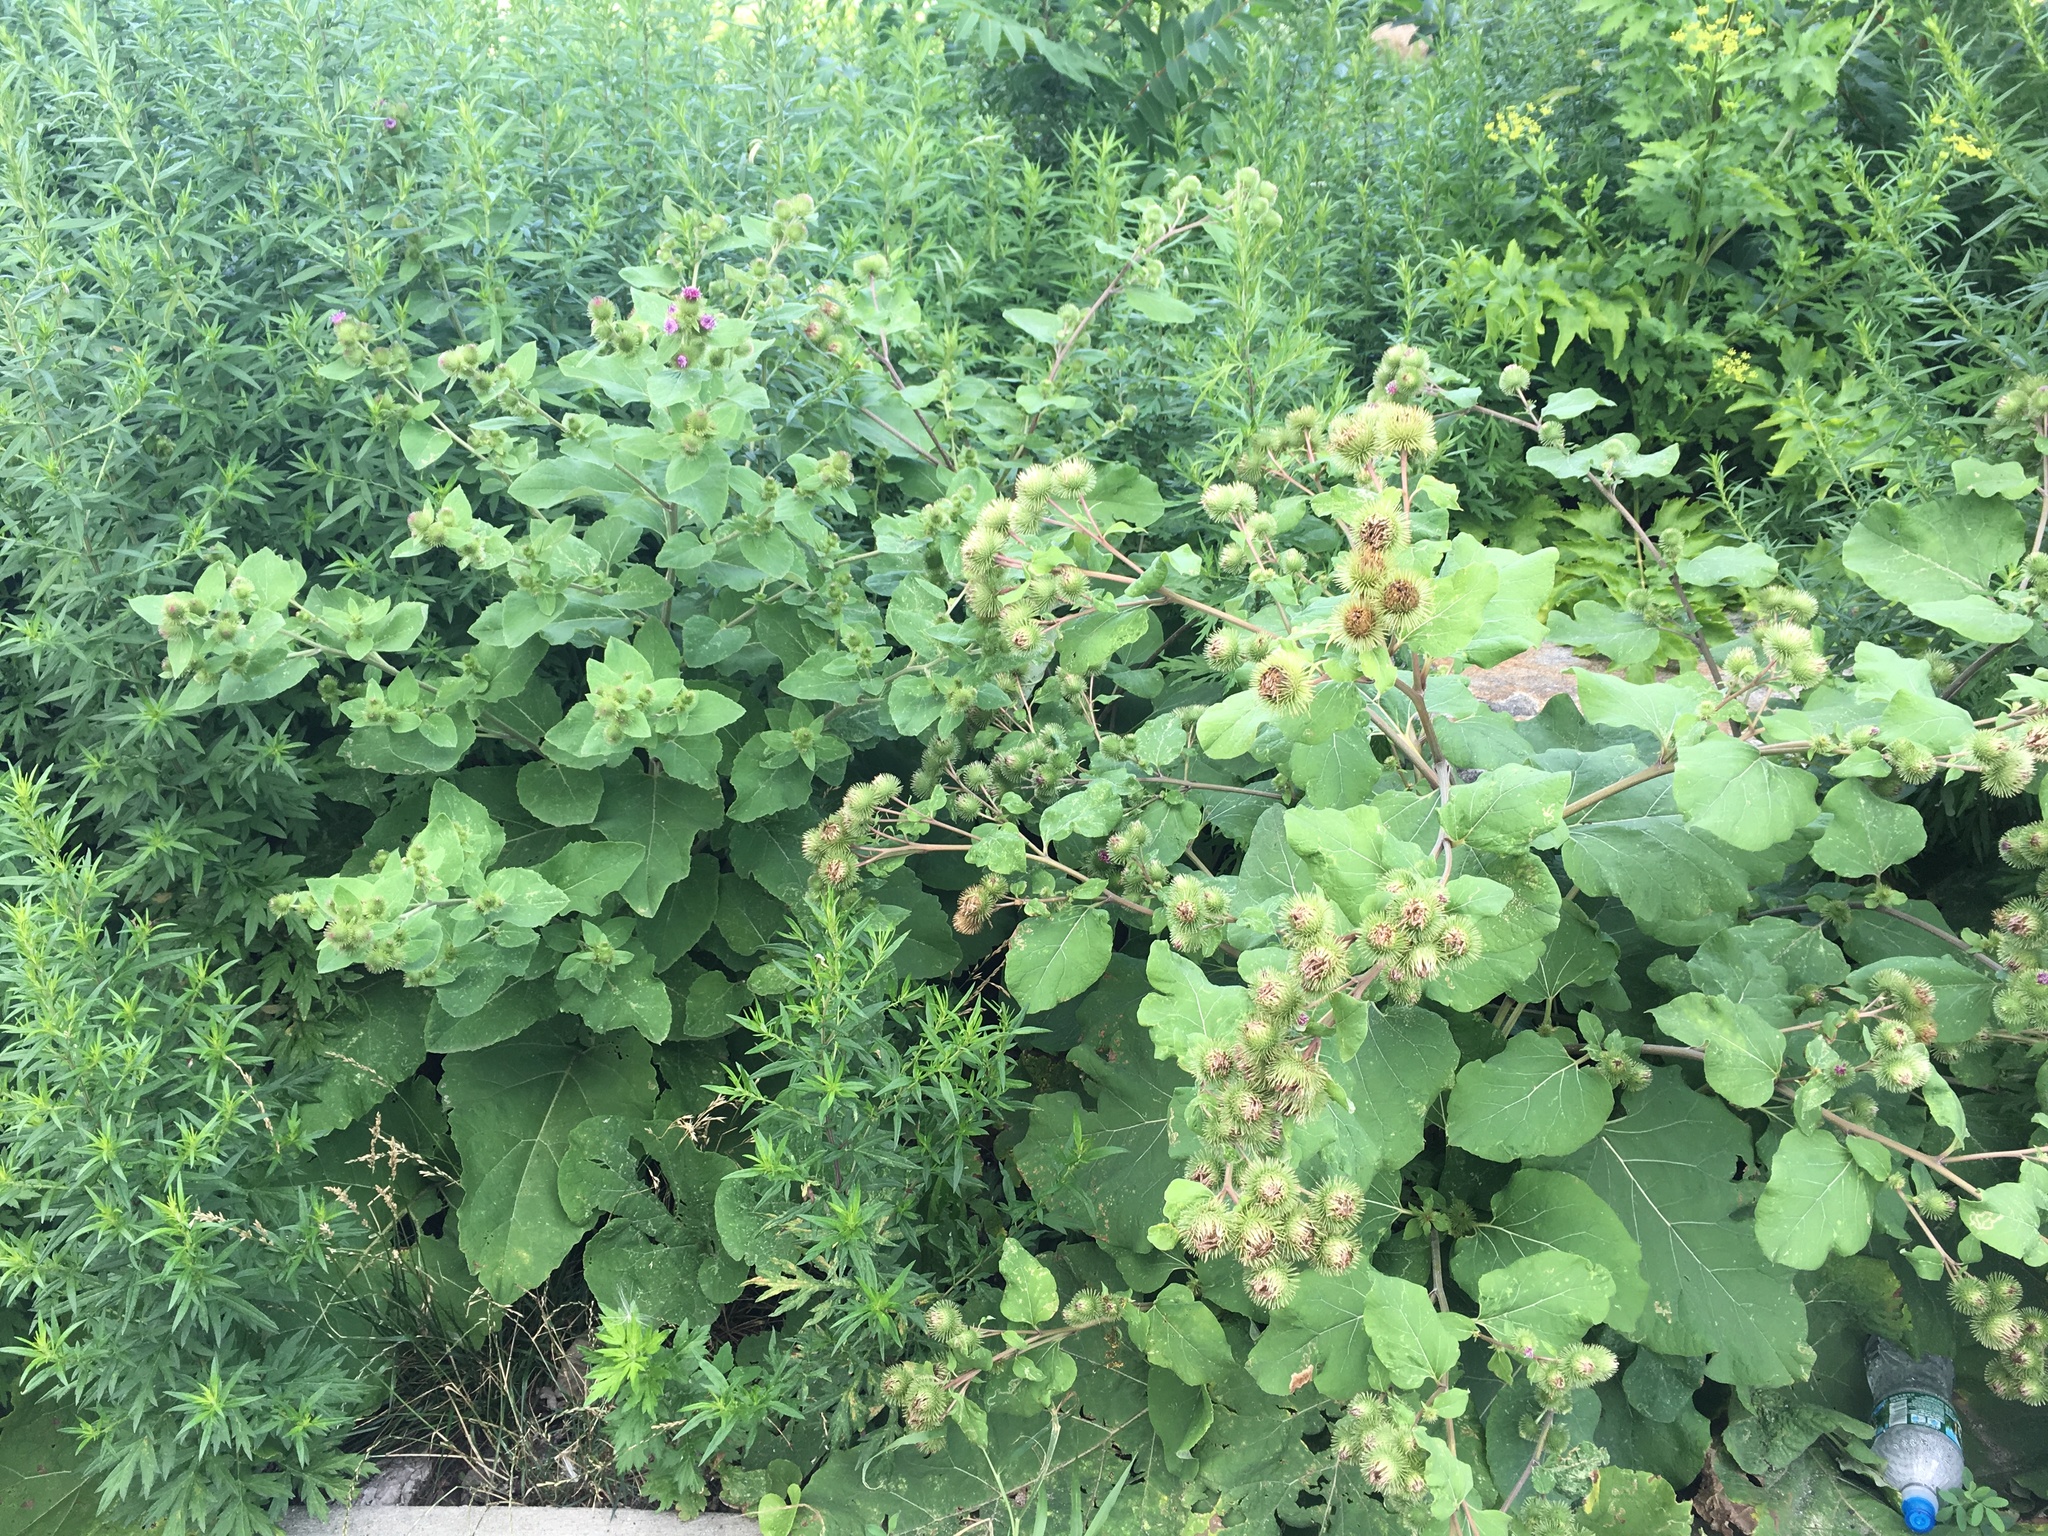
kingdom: Plantae
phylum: Tracheophyta
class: Magnoliopsida
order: Asterales
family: Asteraceae
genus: Arctium
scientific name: Arctium lappa
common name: Greater burdock
